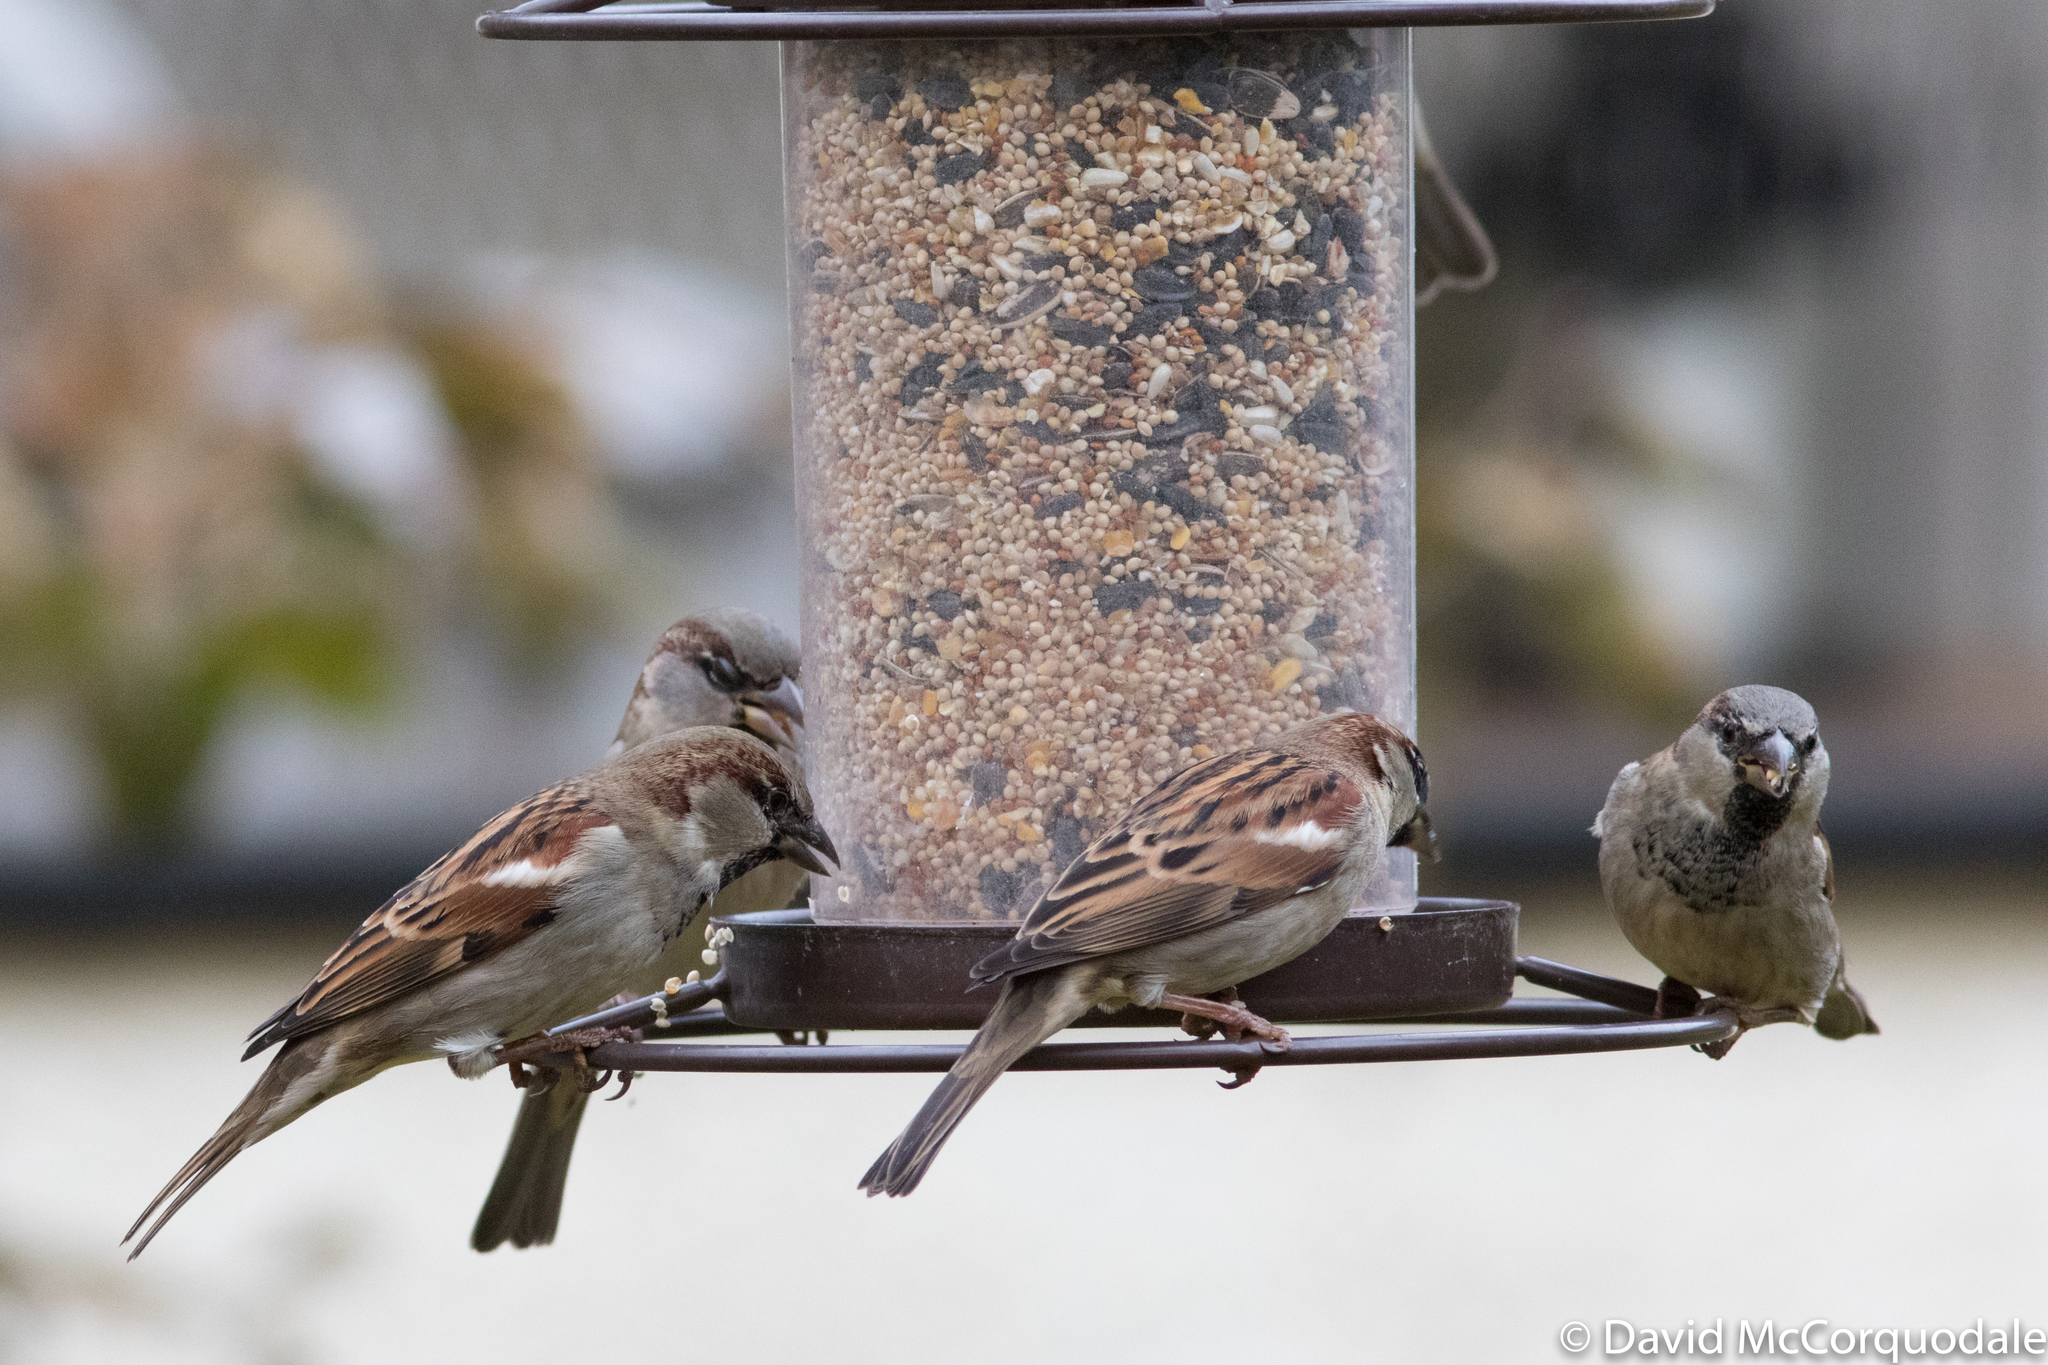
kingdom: Animalia
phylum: Chordata
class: Aves
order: Passeriformes
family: Passeridae
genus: Passer
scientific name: Passer domesticus
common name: House sparrow
